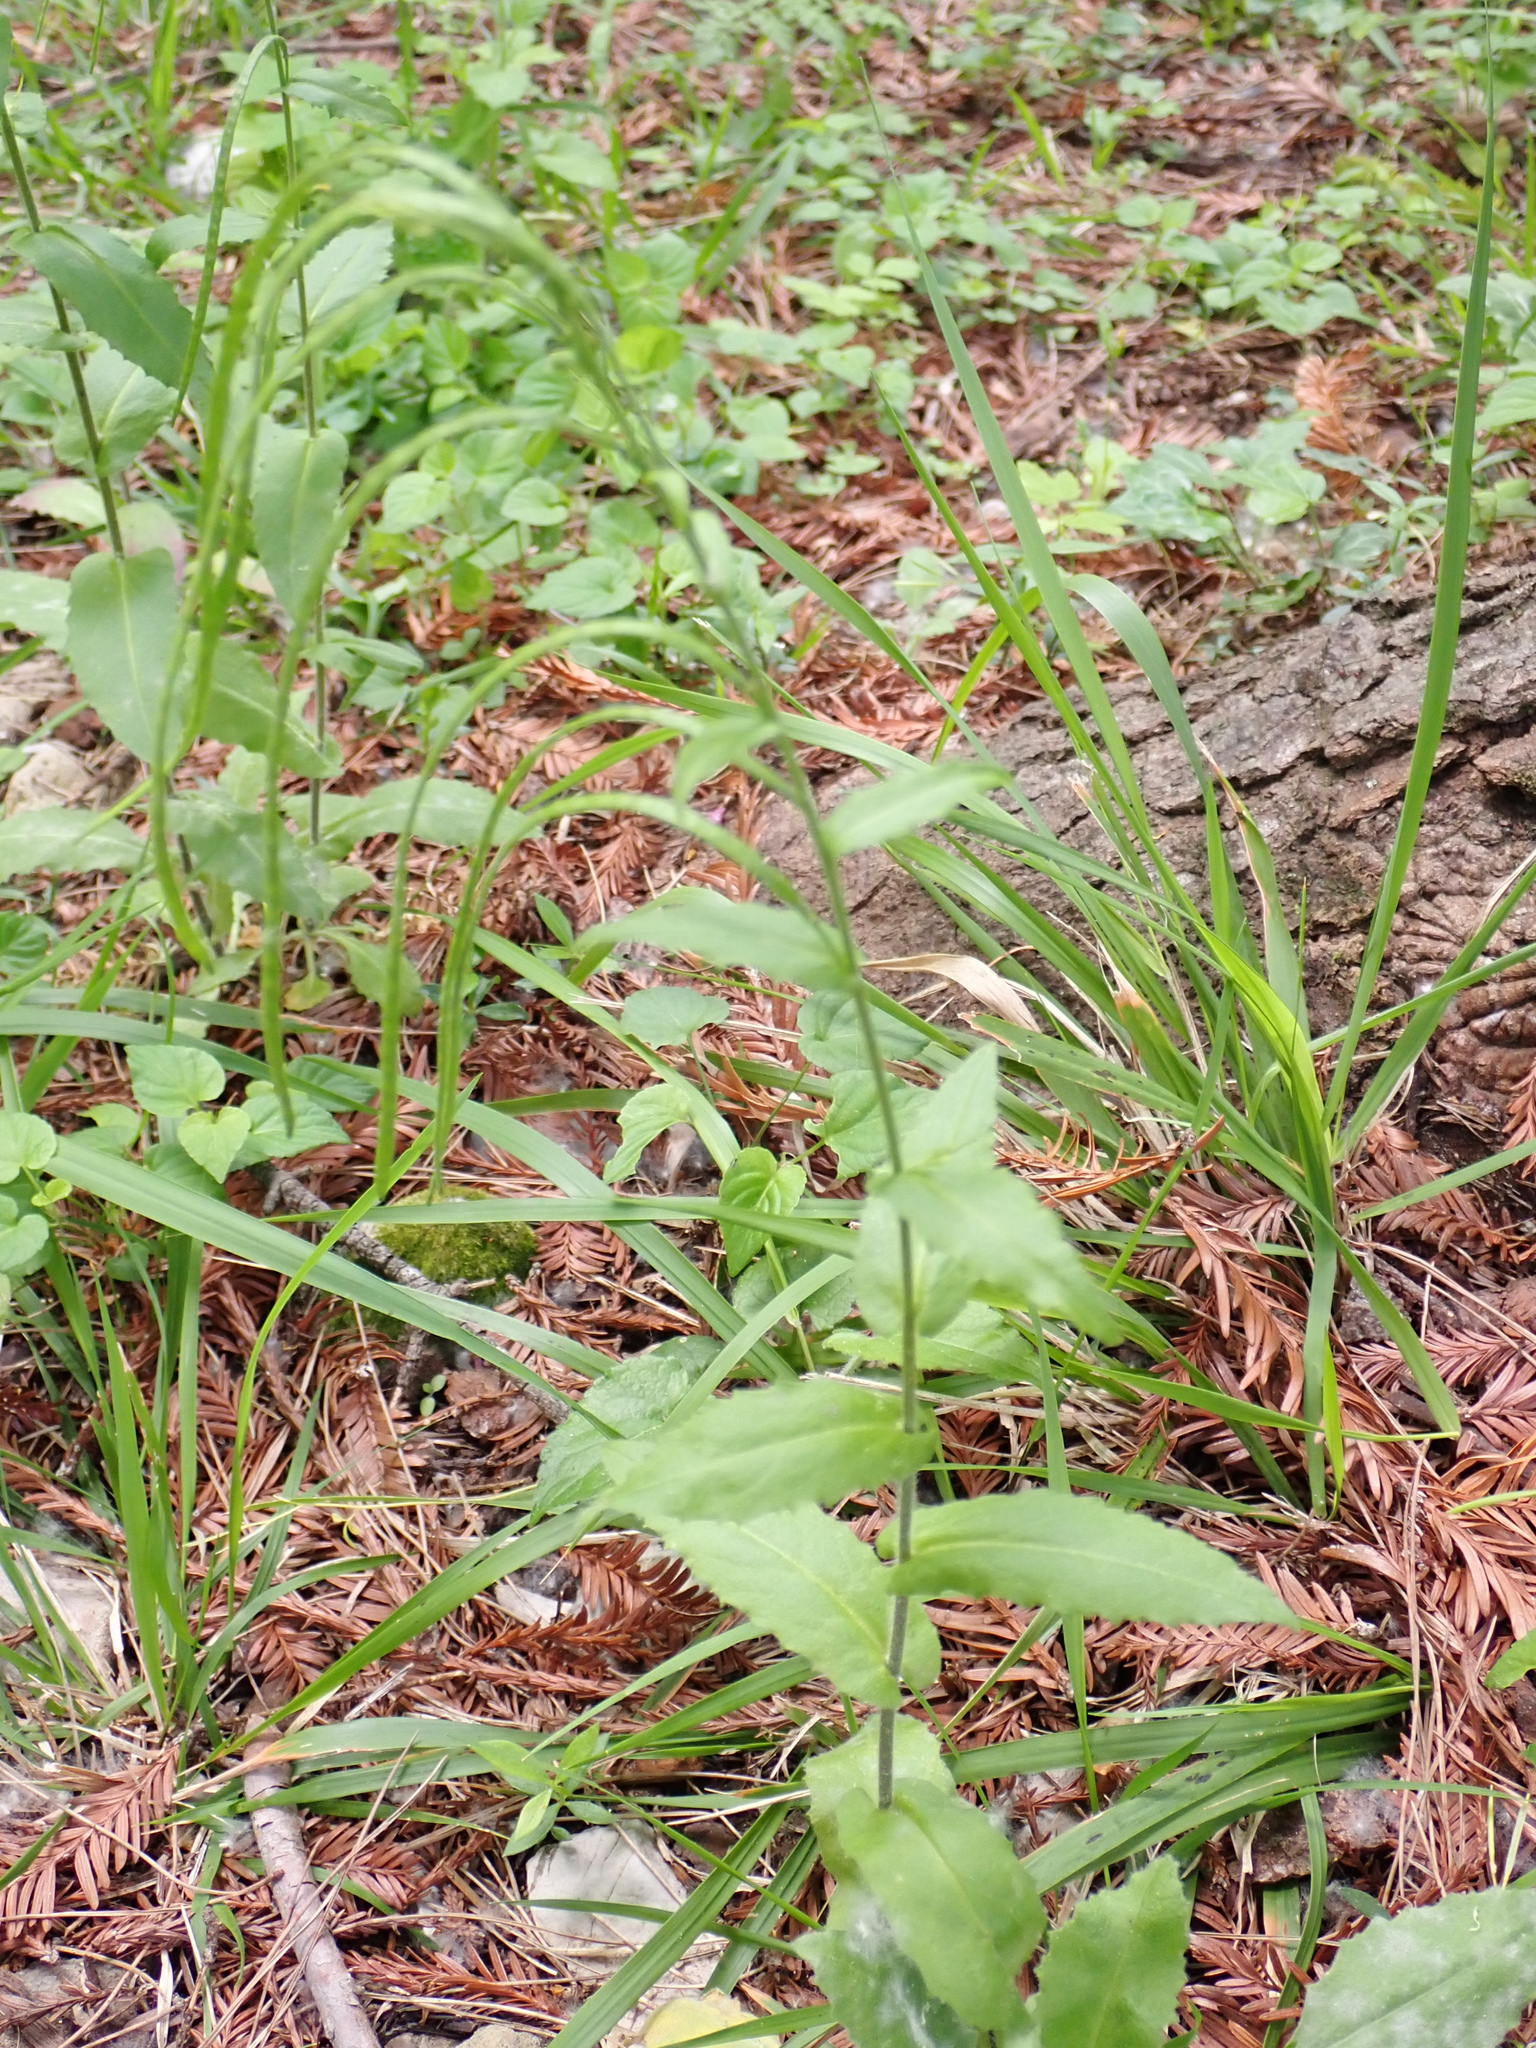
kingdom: Plantae
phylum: Tracheophyta
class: Magnoliopsida
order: Brassicales
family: Brassicaceae
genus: Pseudoturritis
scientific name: Pseudoturritis turrita
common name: Tower cress
